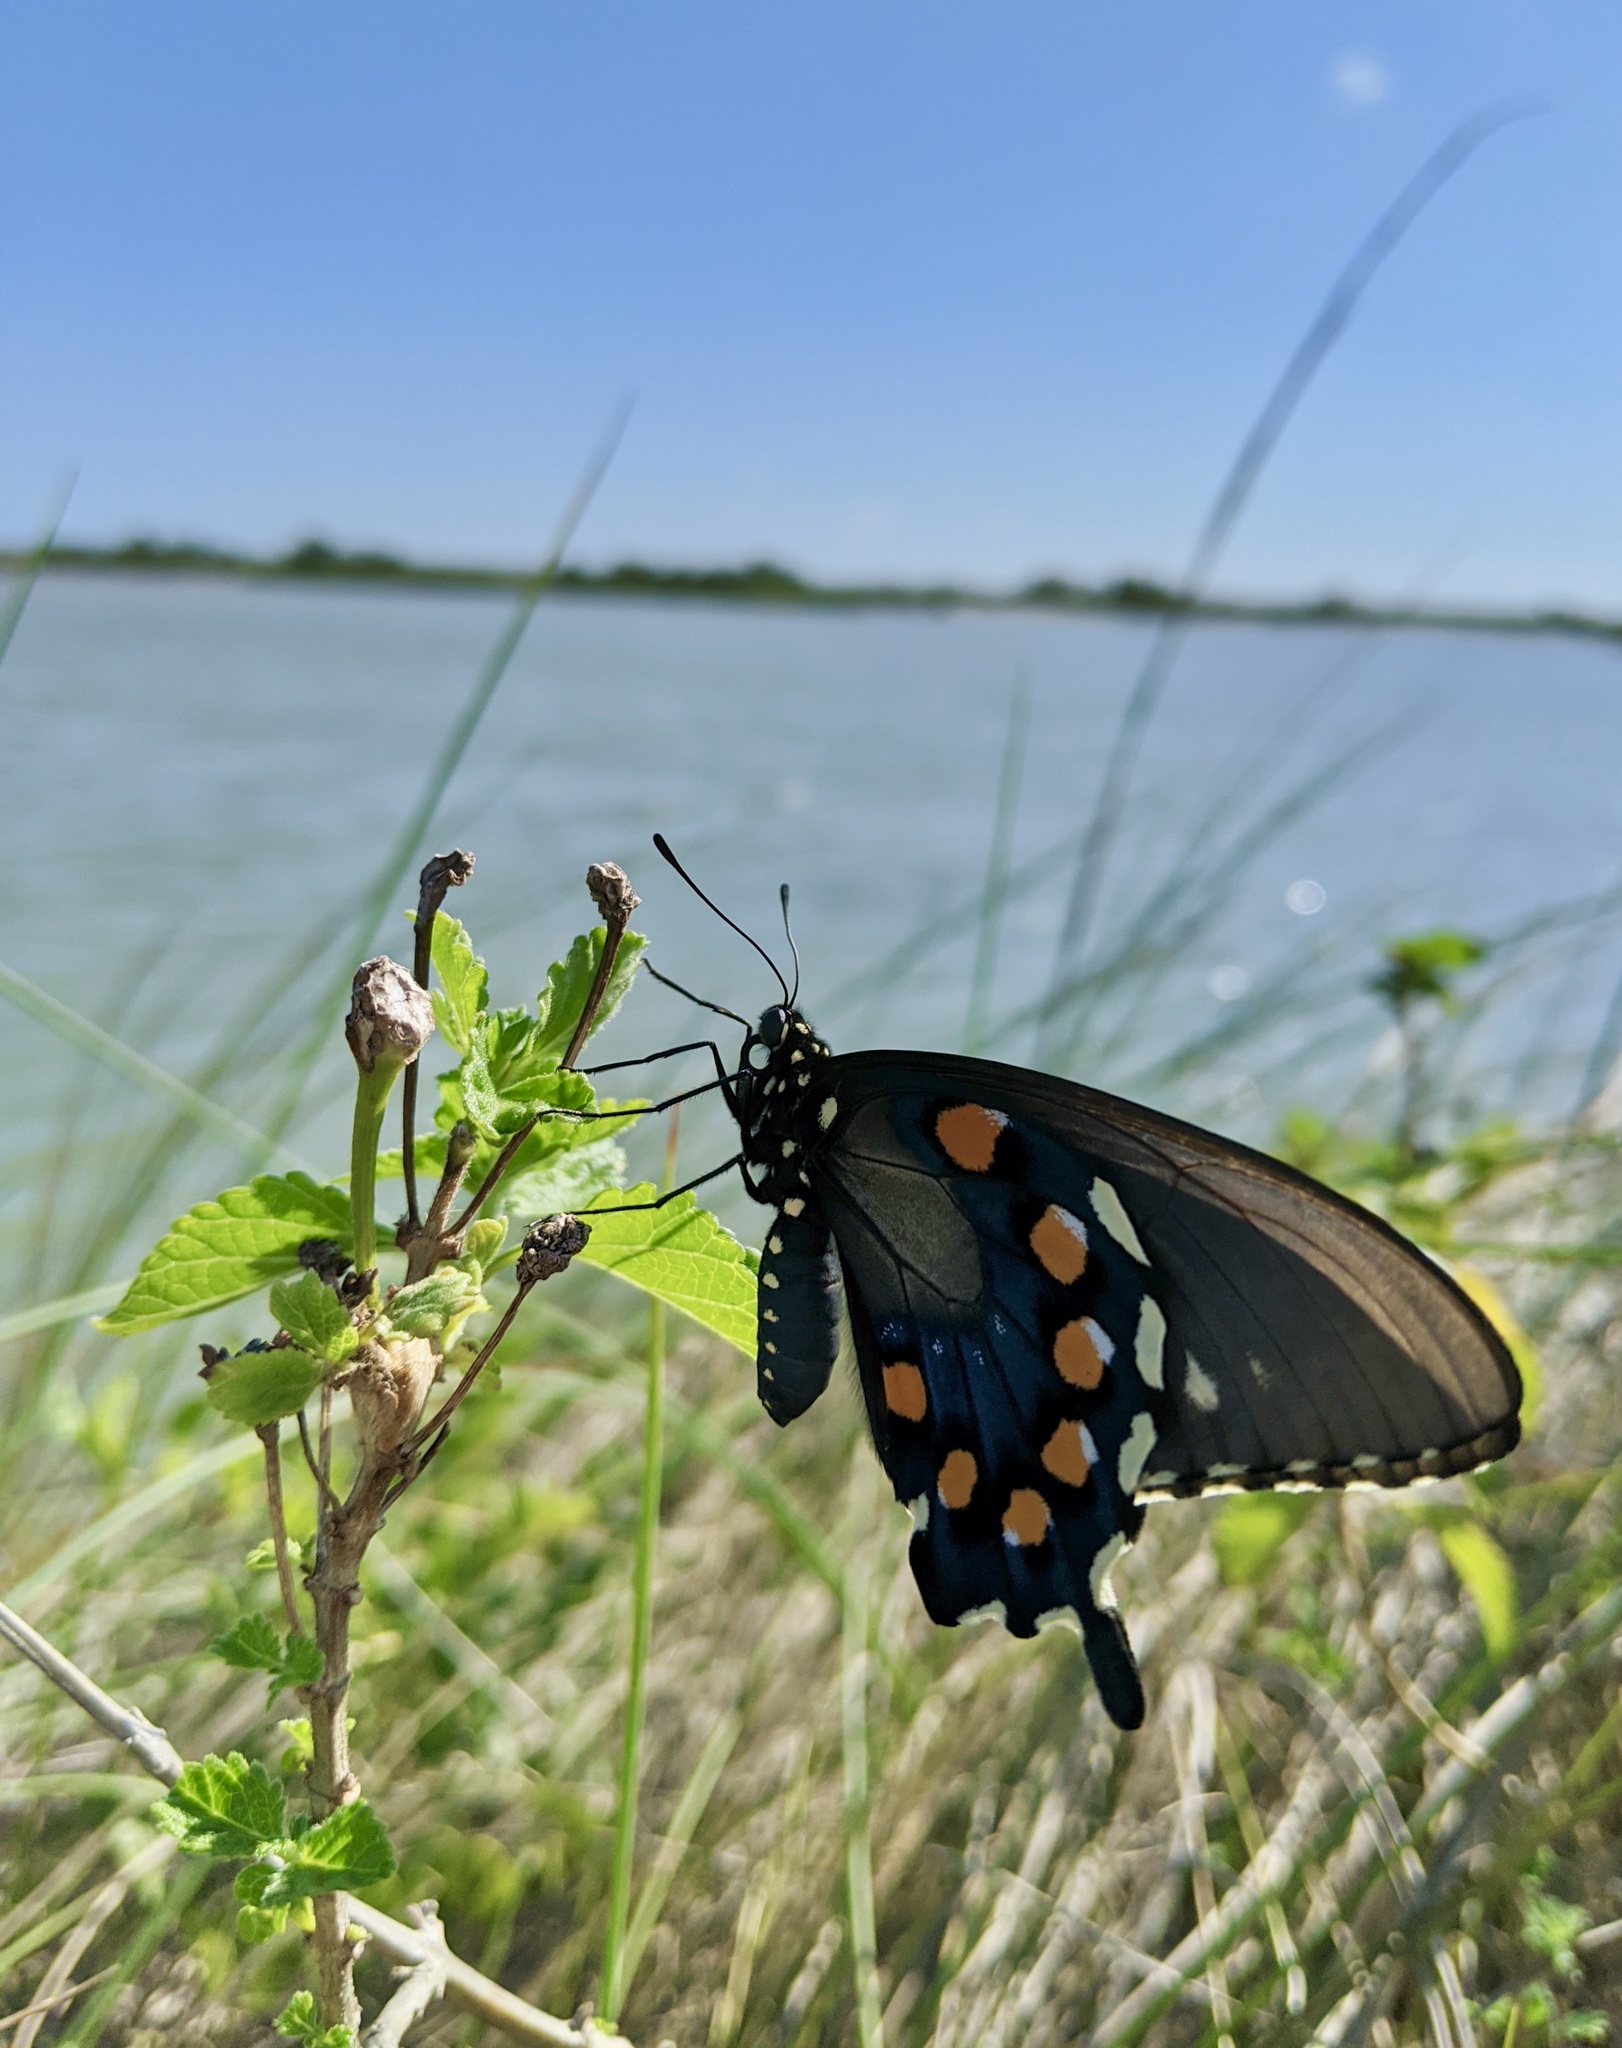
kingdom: Animalia
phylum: Arthropoda
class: Insecta
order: Lepidoptera
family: Papilionidae
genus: Battus
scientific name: Battus philenor
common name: Pipevine swallowtail
